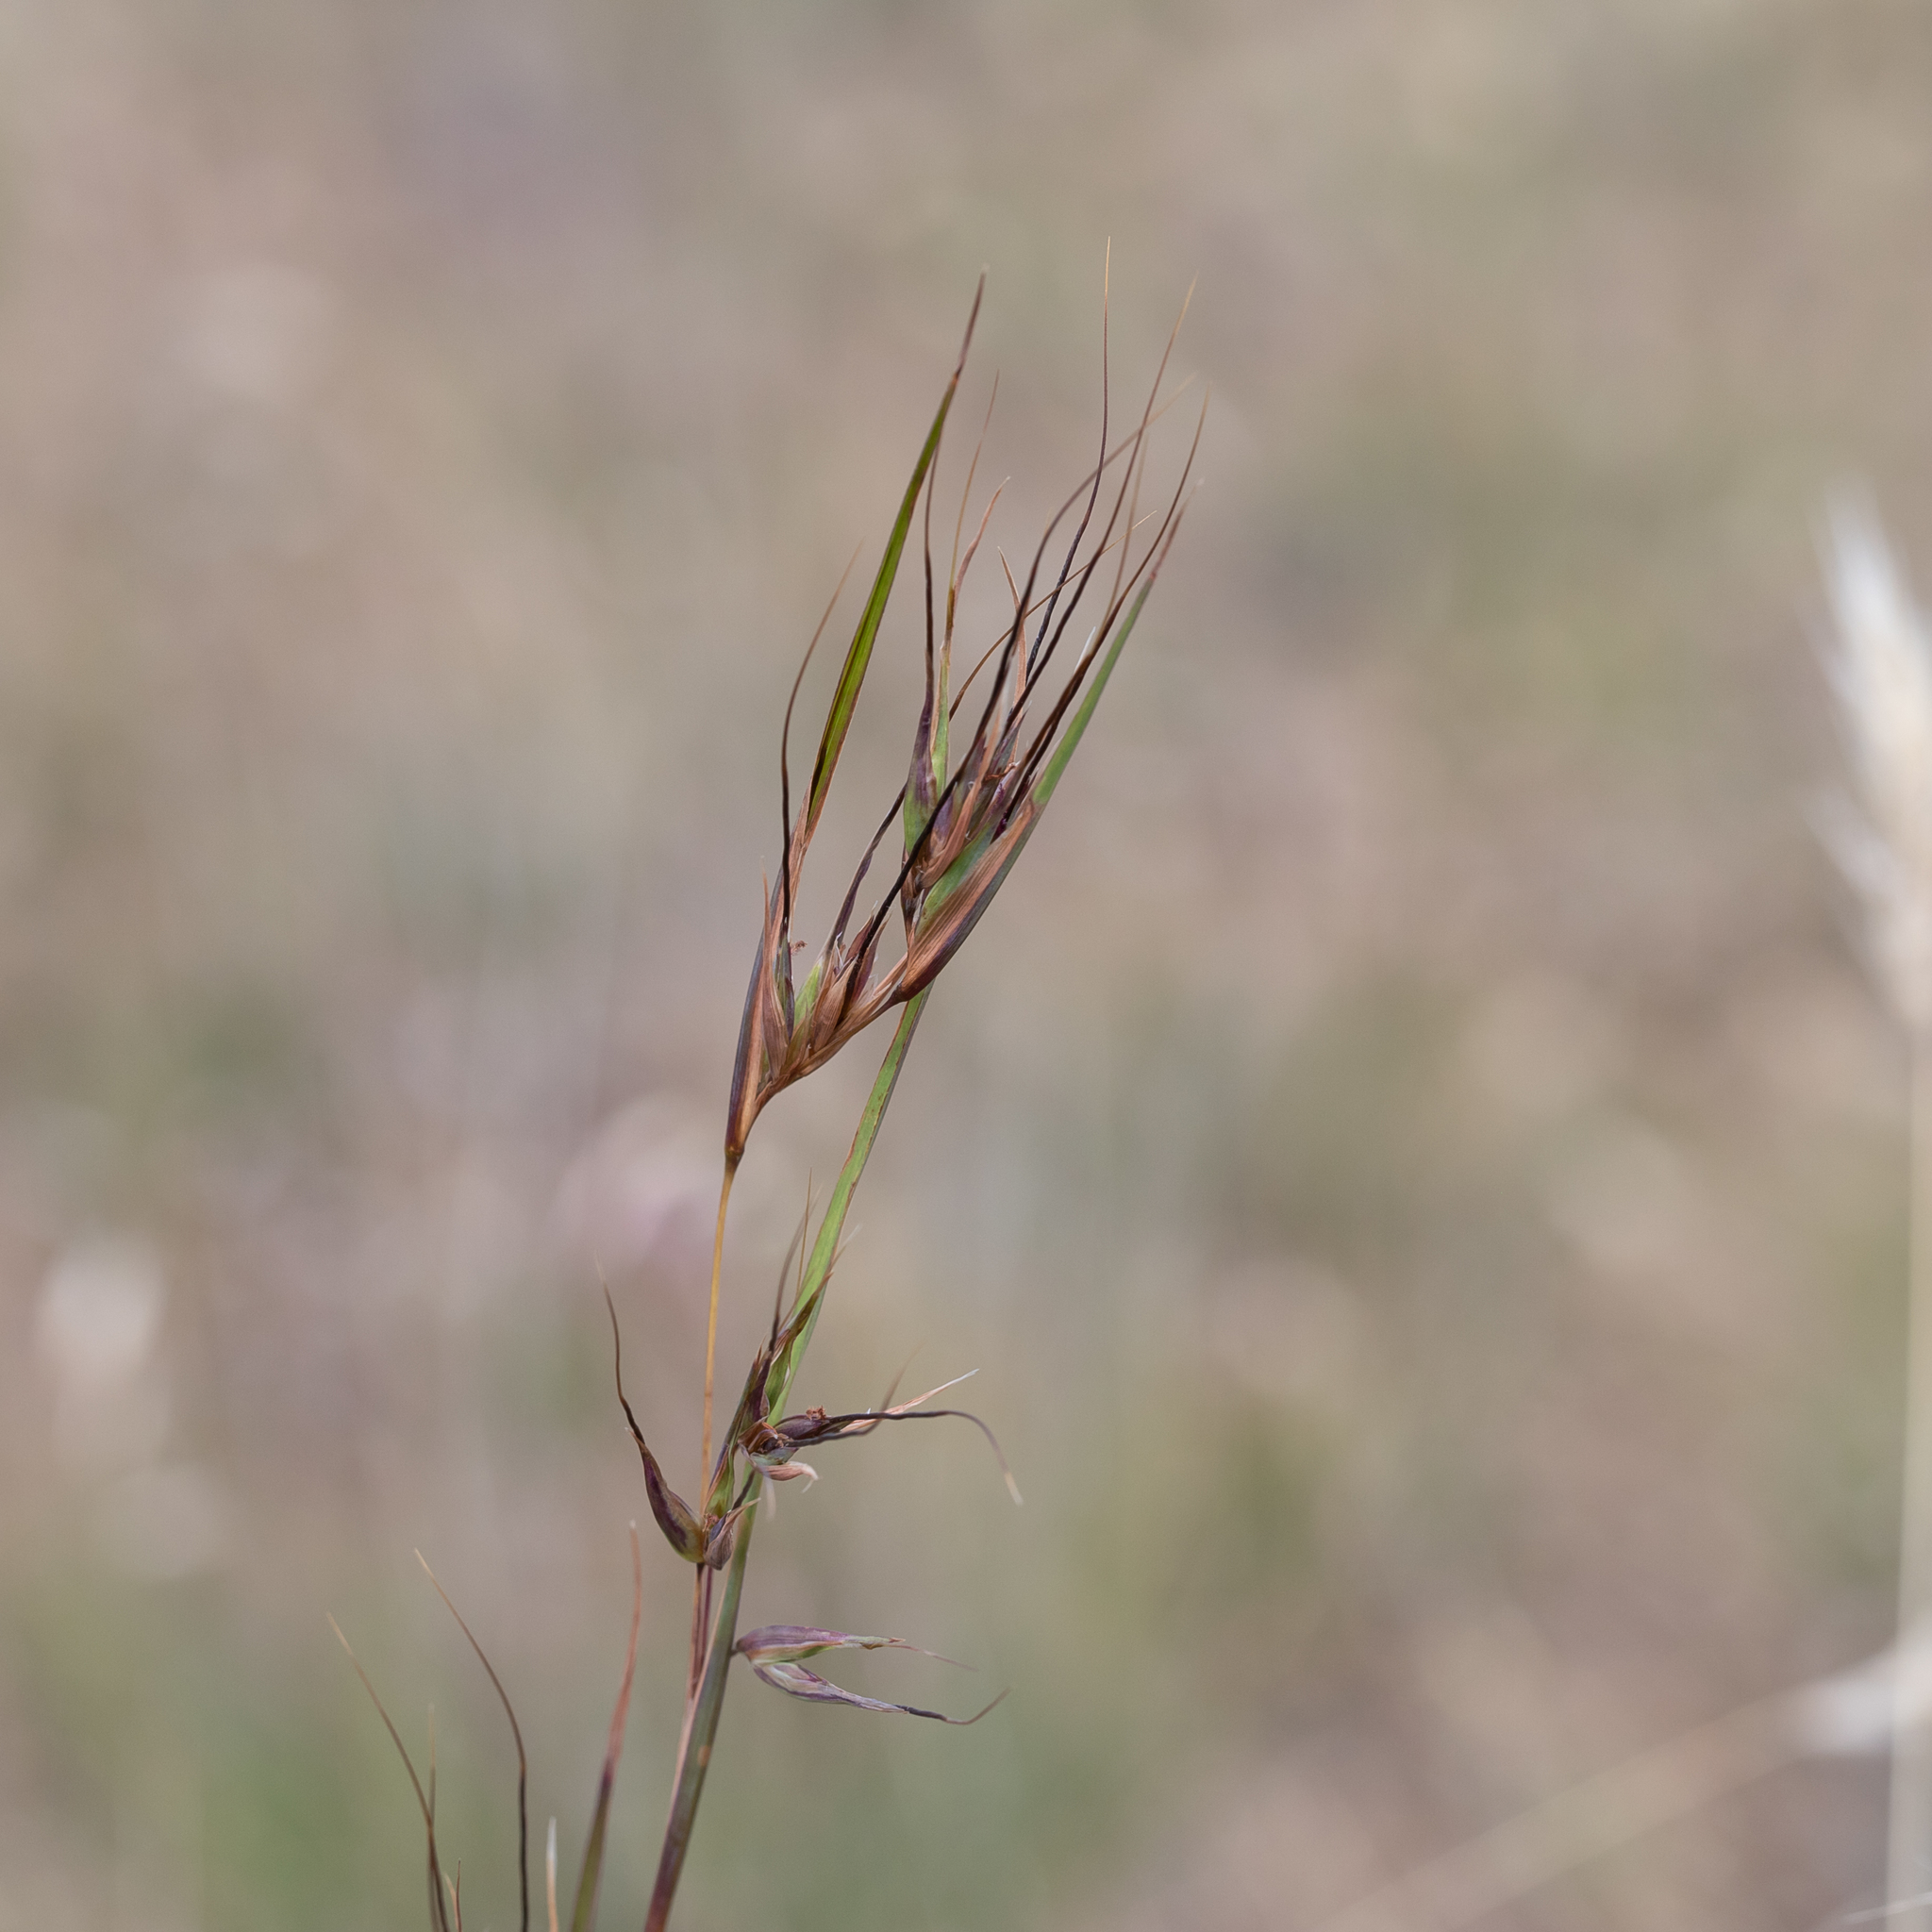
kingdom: Plantae
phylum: Tracheophyta
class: Liliopsida
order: Poales
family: Poaceae
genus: Themeda
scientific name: Themeda triandra
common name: Kangaroo grass
